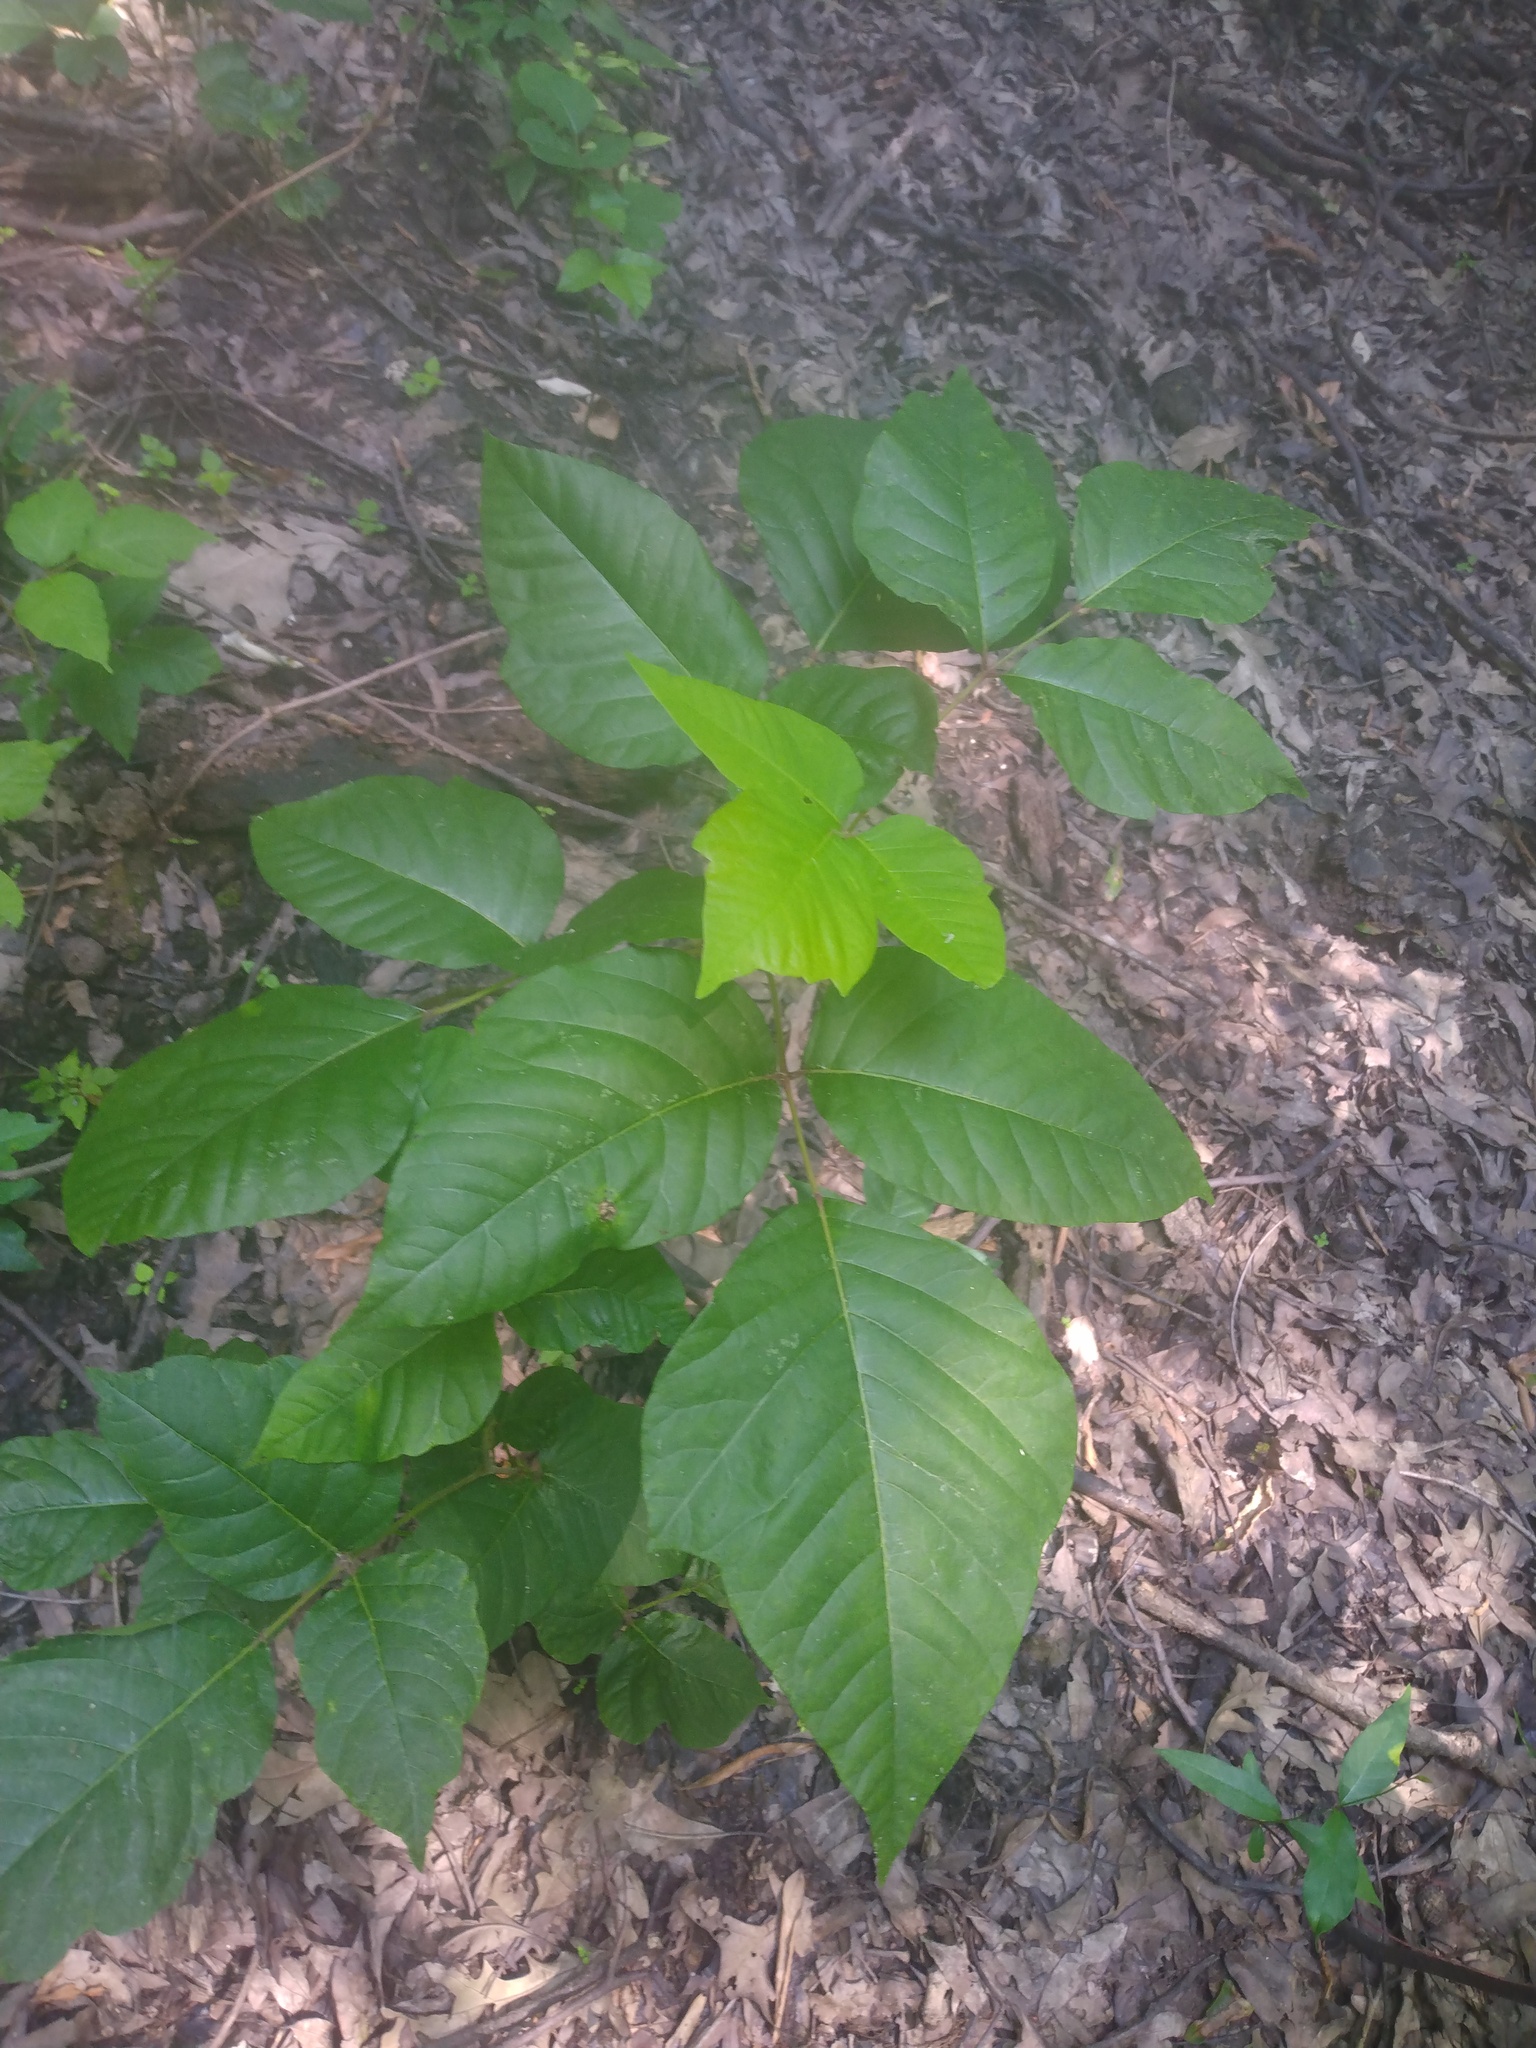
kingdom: Plantae
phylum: Tracheophyta
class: Magnoliopsida
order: Sapindales
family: Anacardiaceae
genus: Toxicodendron
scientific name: Toxicodendron radicans
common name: Poison ivy
